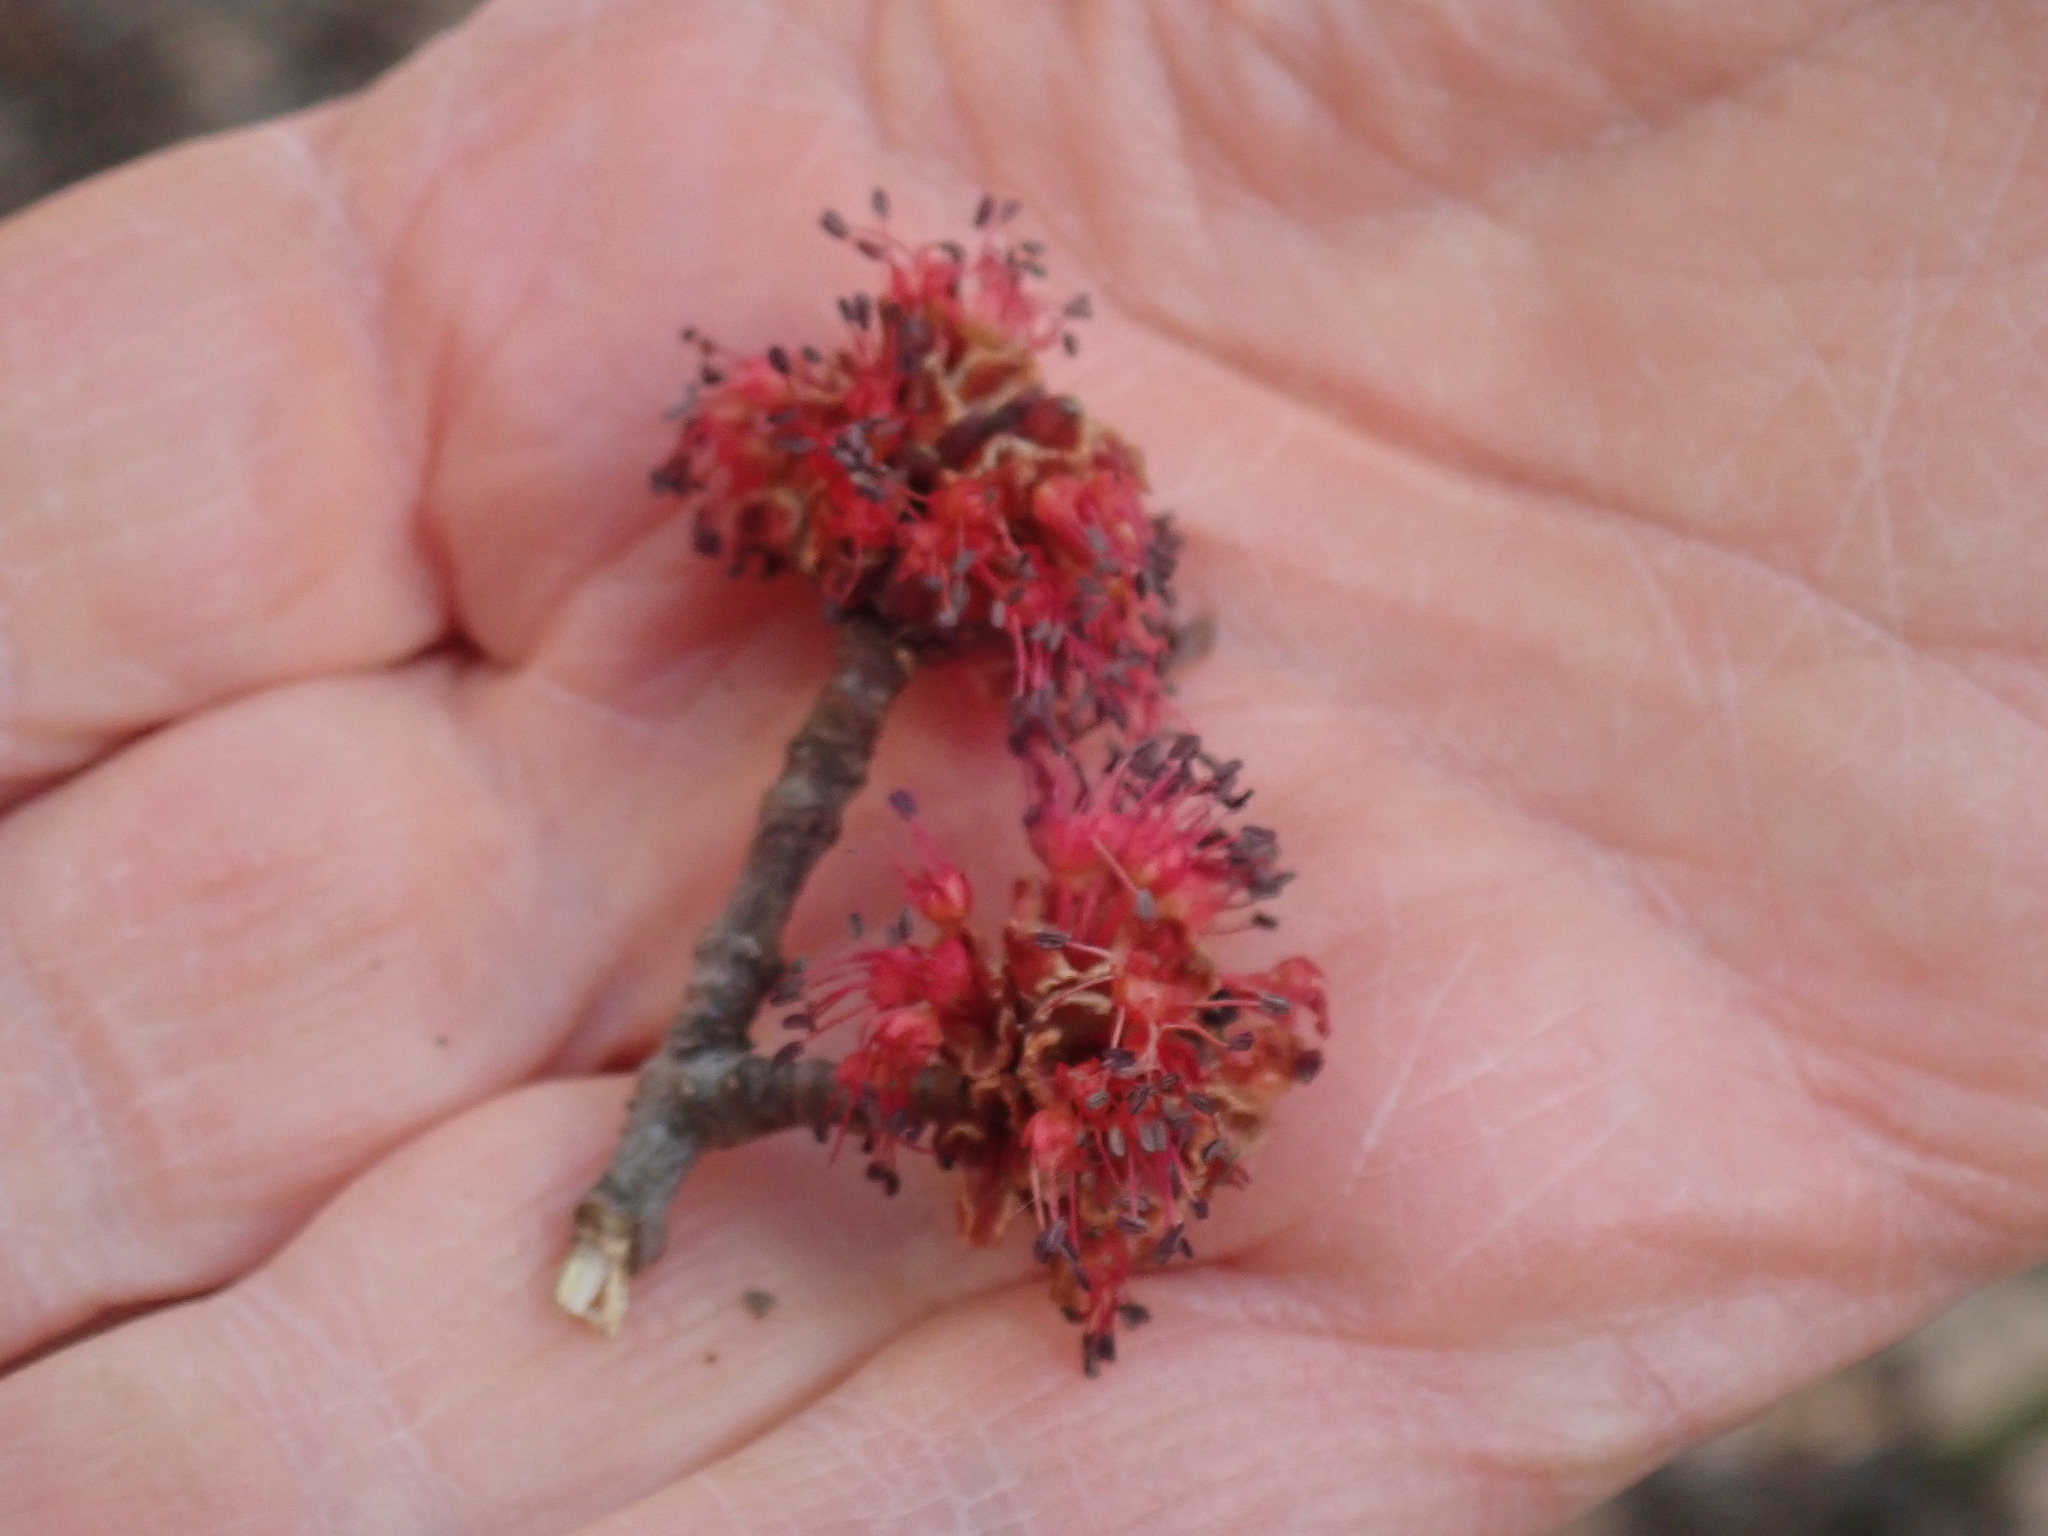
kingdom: Plantae
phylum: Tracheophyta
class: Magnoliopsida
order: Sapindales
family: Sapindaceae
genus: Acer
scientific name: Acer rubrum
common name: Red maple
